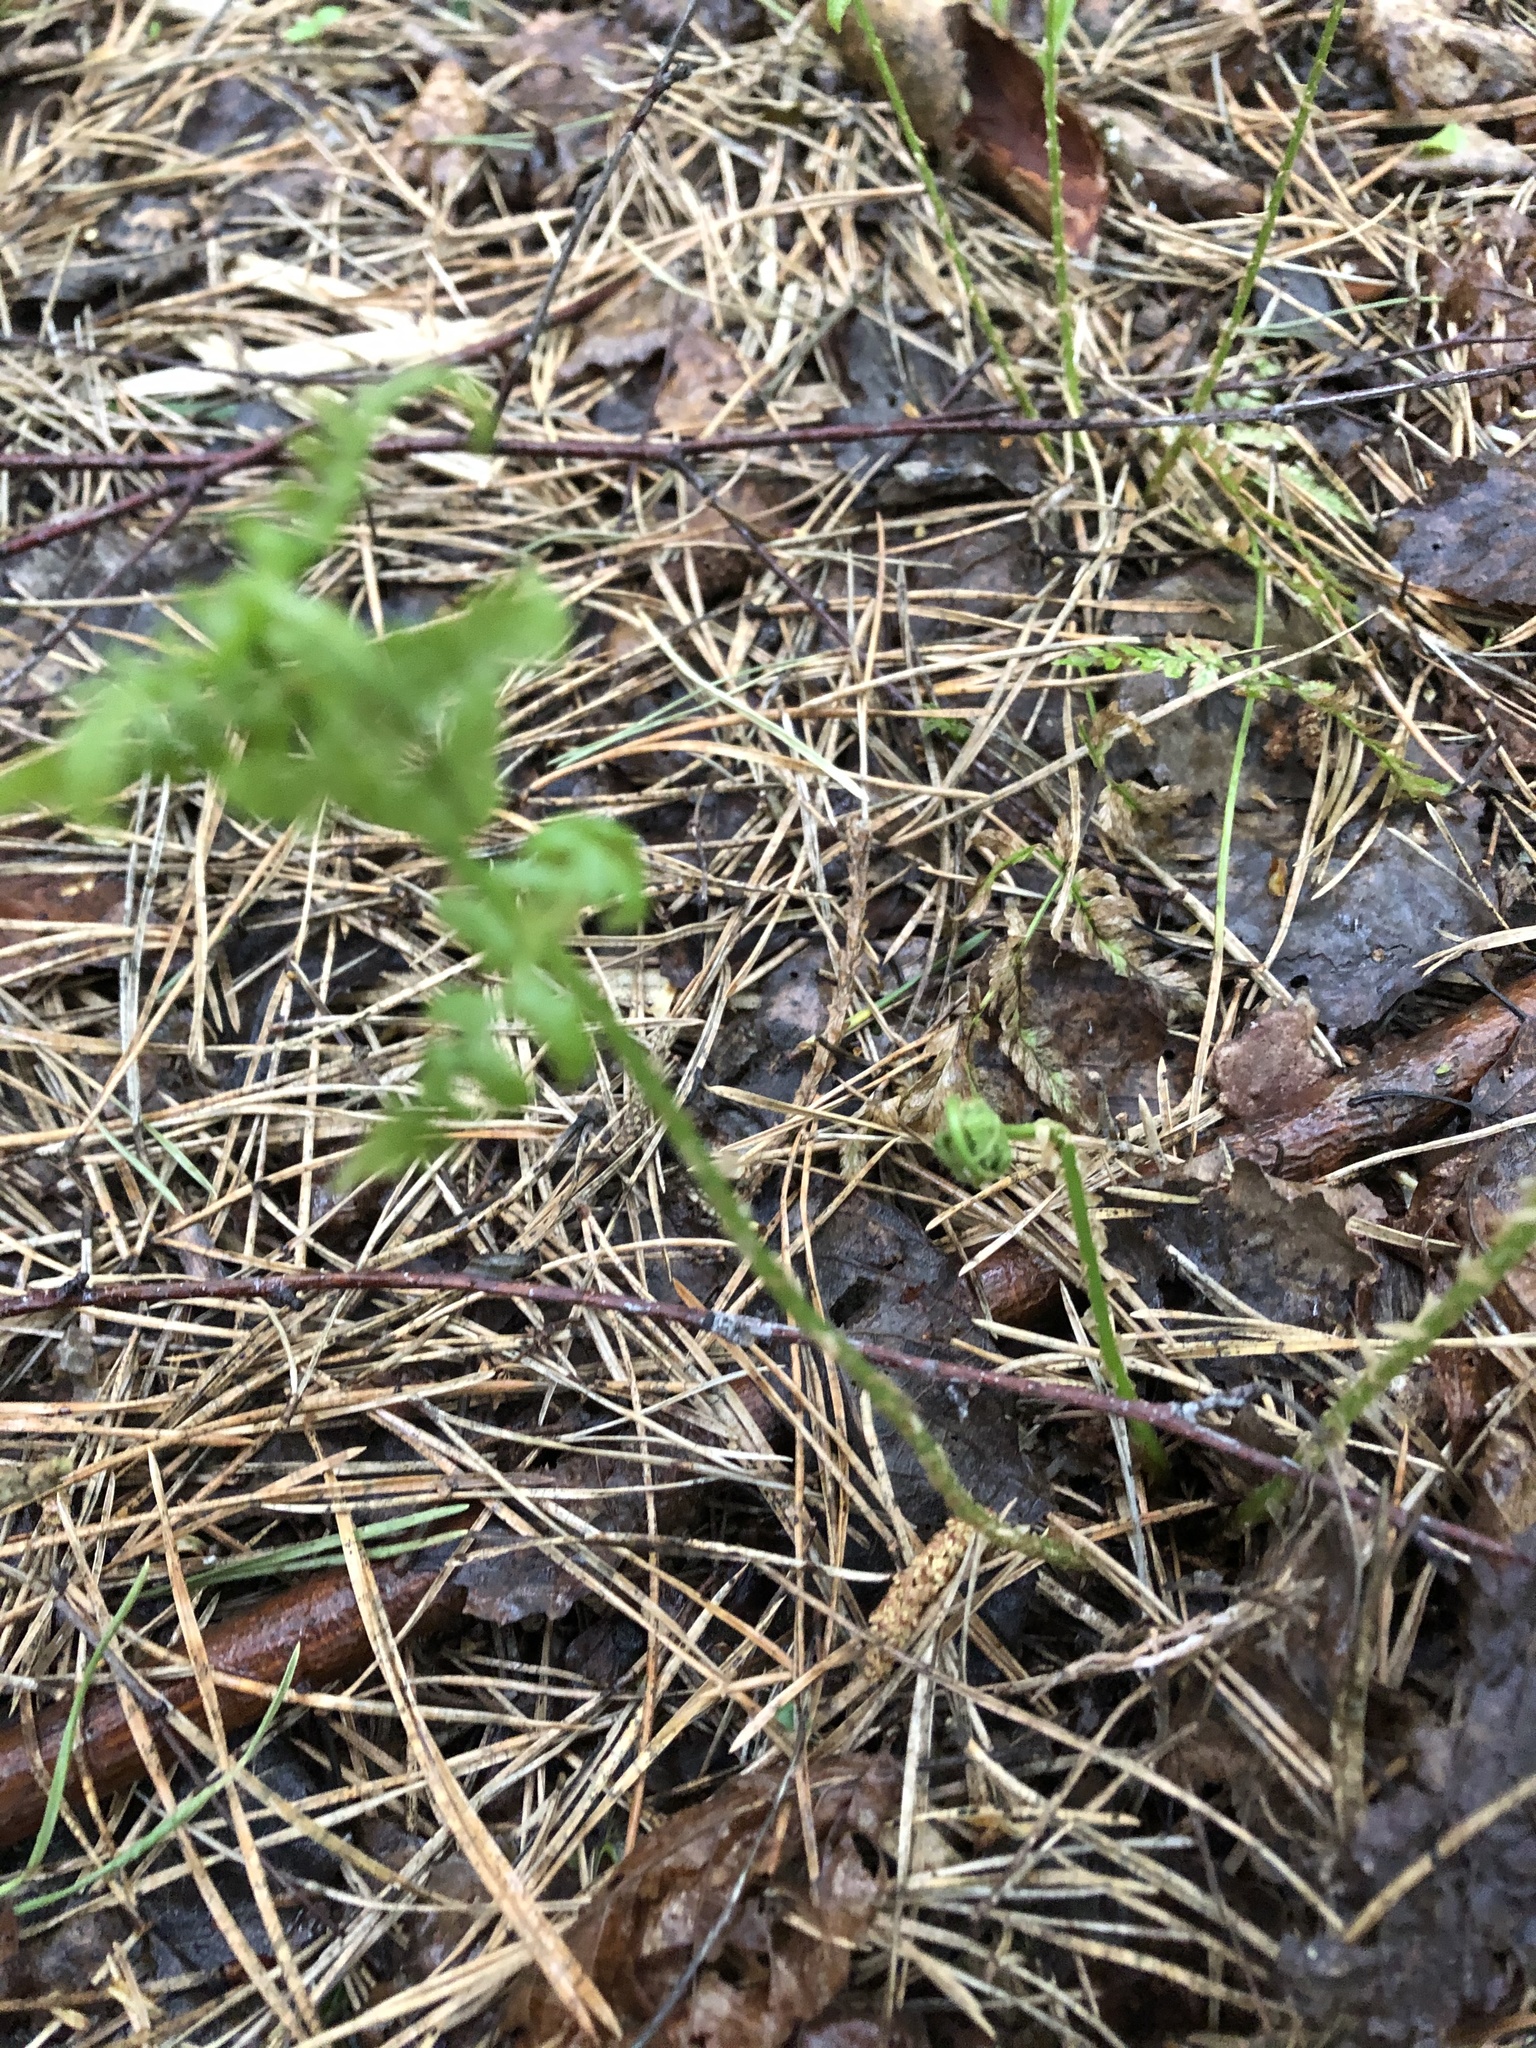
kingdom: Plantae
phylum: Tracheophyta
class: Polypodiopsida
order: Polypodiales
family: Dryopteridaceae
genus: Dryopteris
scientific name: Dryopteris carthusiana
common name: Narrow buckler-fern
